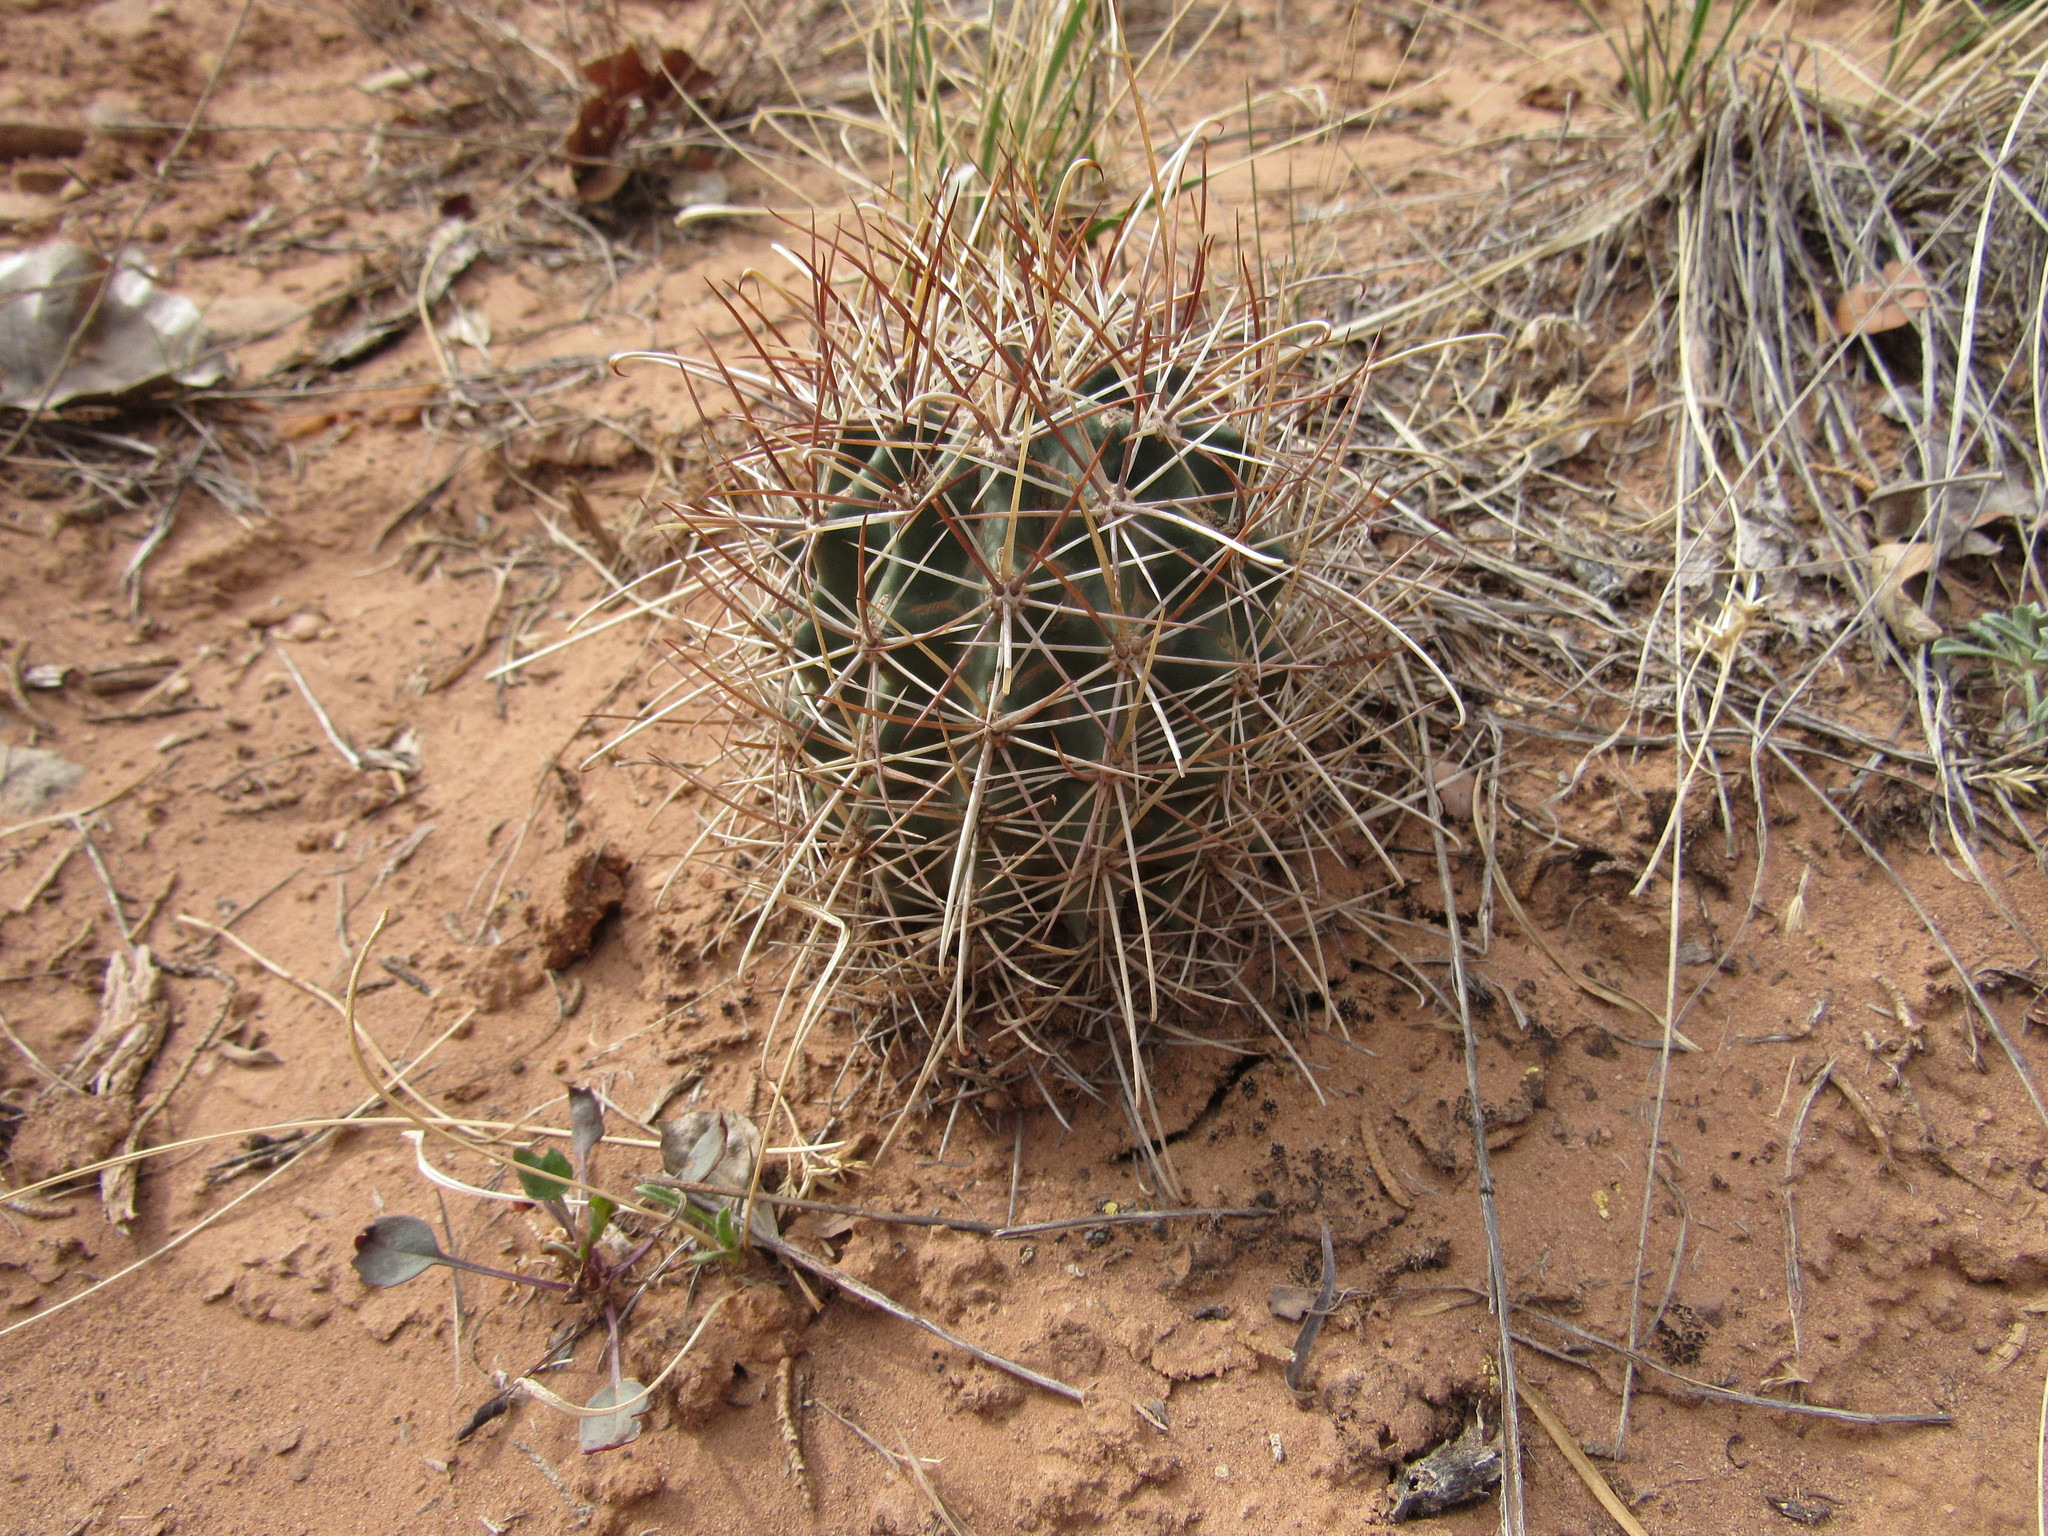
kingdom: Plantae
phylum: Tracheophyta
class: Magnoliopsida
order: Caryophyllales
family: Cactaceae
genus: Sclerocactus
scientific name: Sclerocactus parviflorus
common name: Small-flower fishhook cactus
